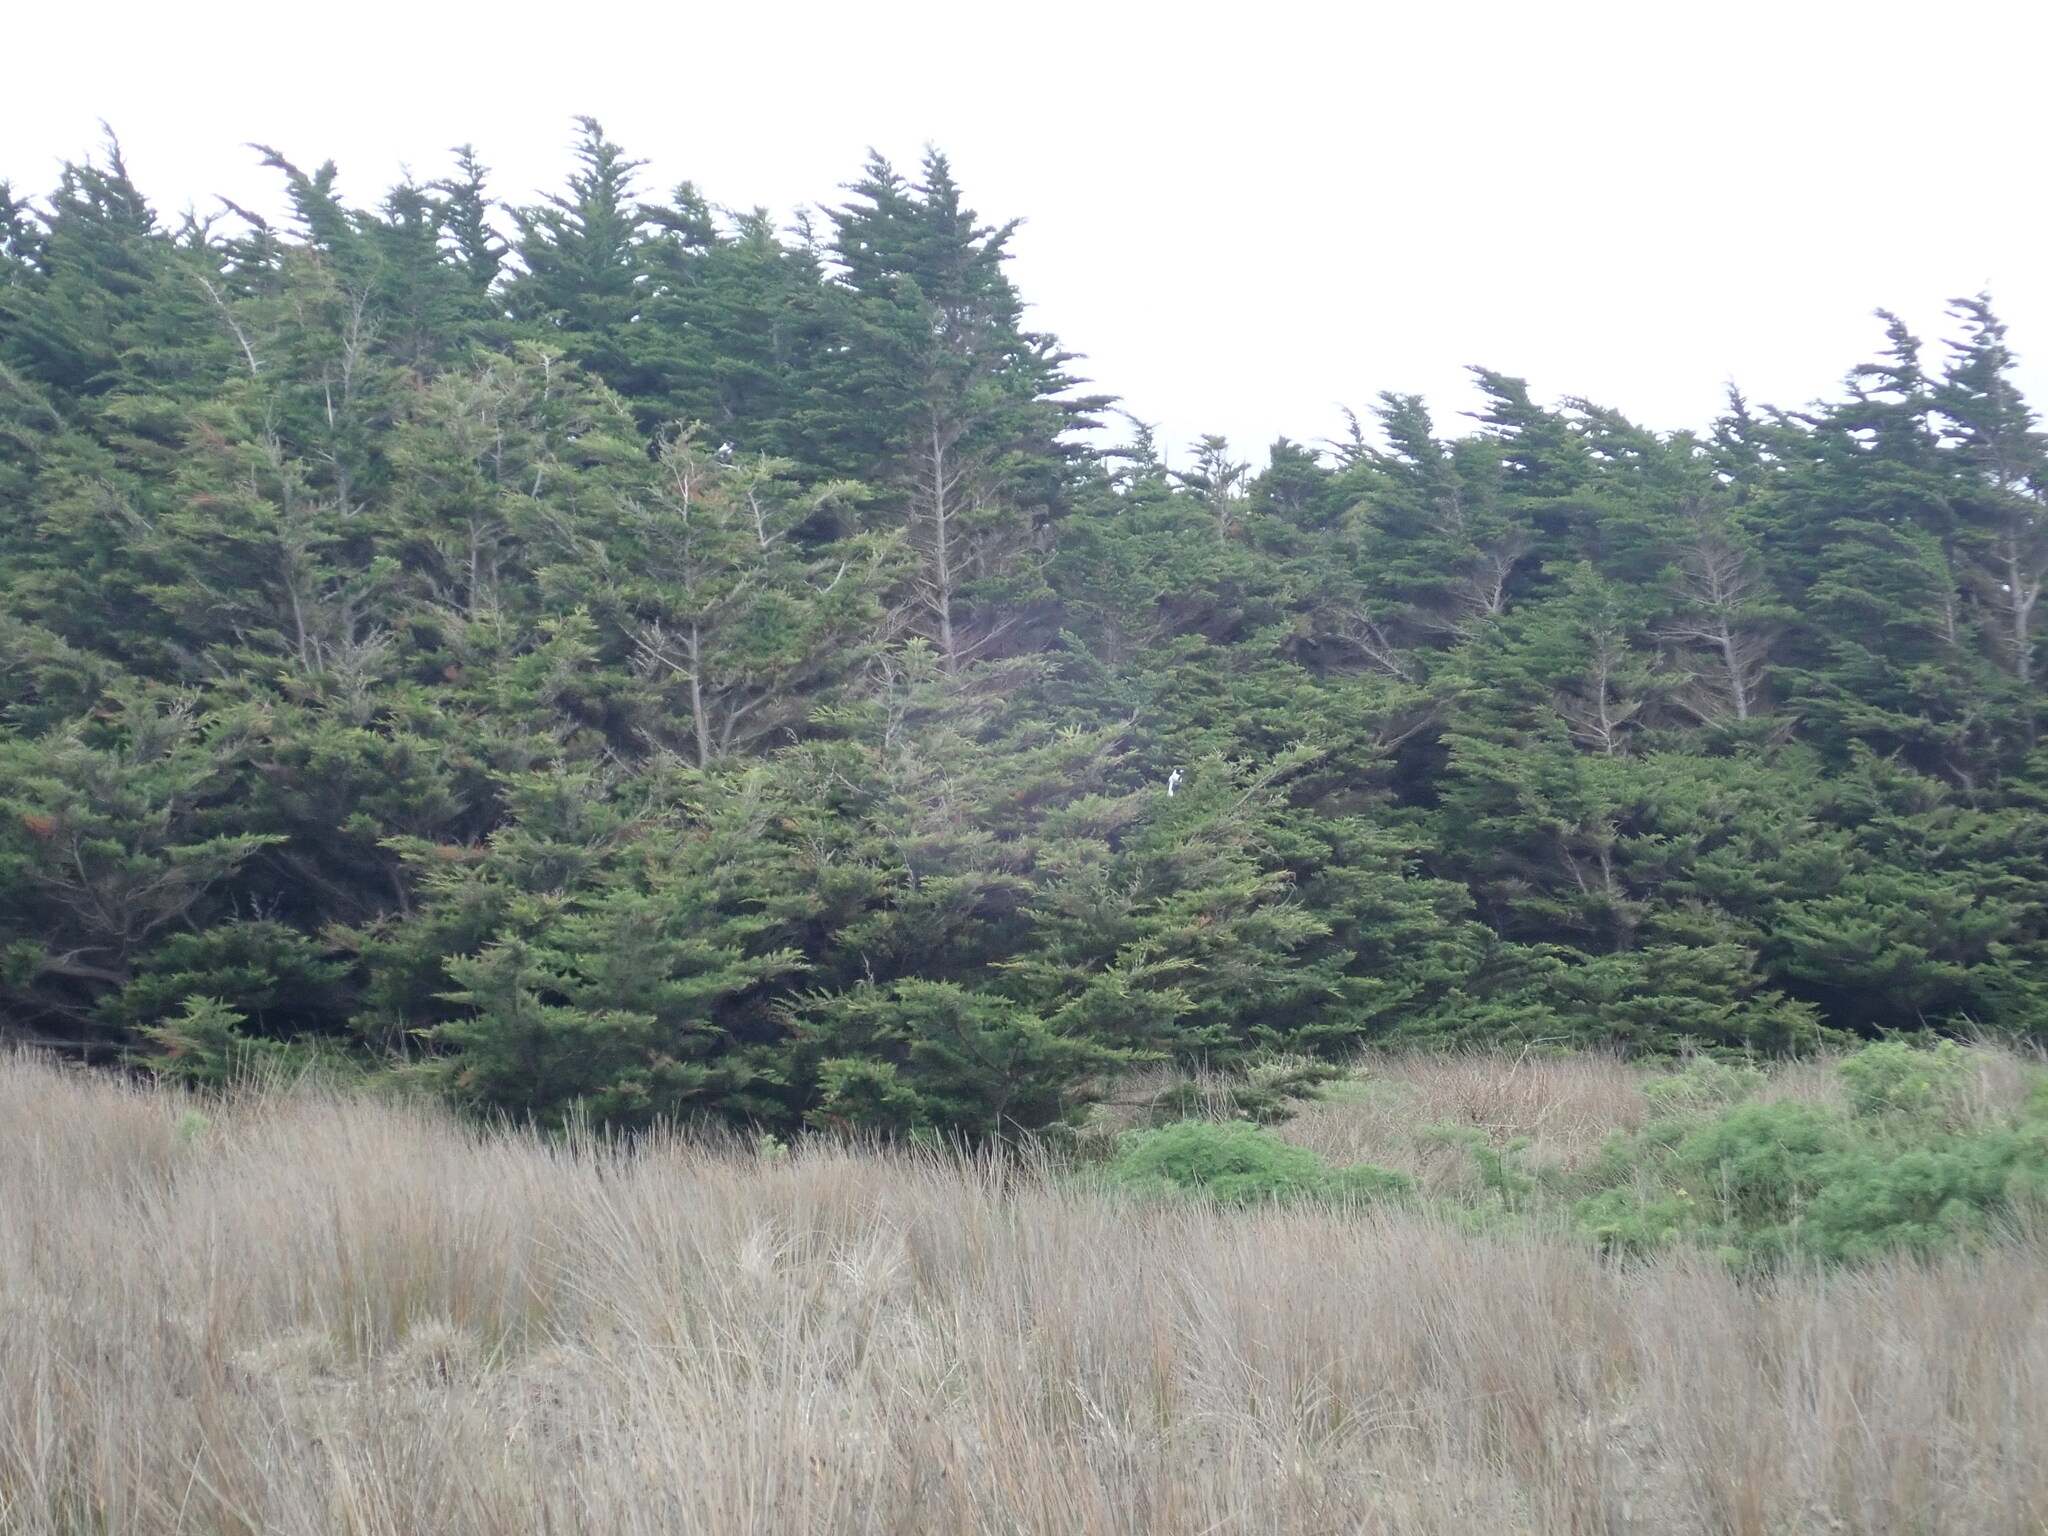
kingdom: Animalia
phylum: Chordata
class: Aves
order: Passeriformes
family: Cracticidae
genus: Gymnorhina
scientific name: Gymnorhina tibicen
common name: Australian magpie
